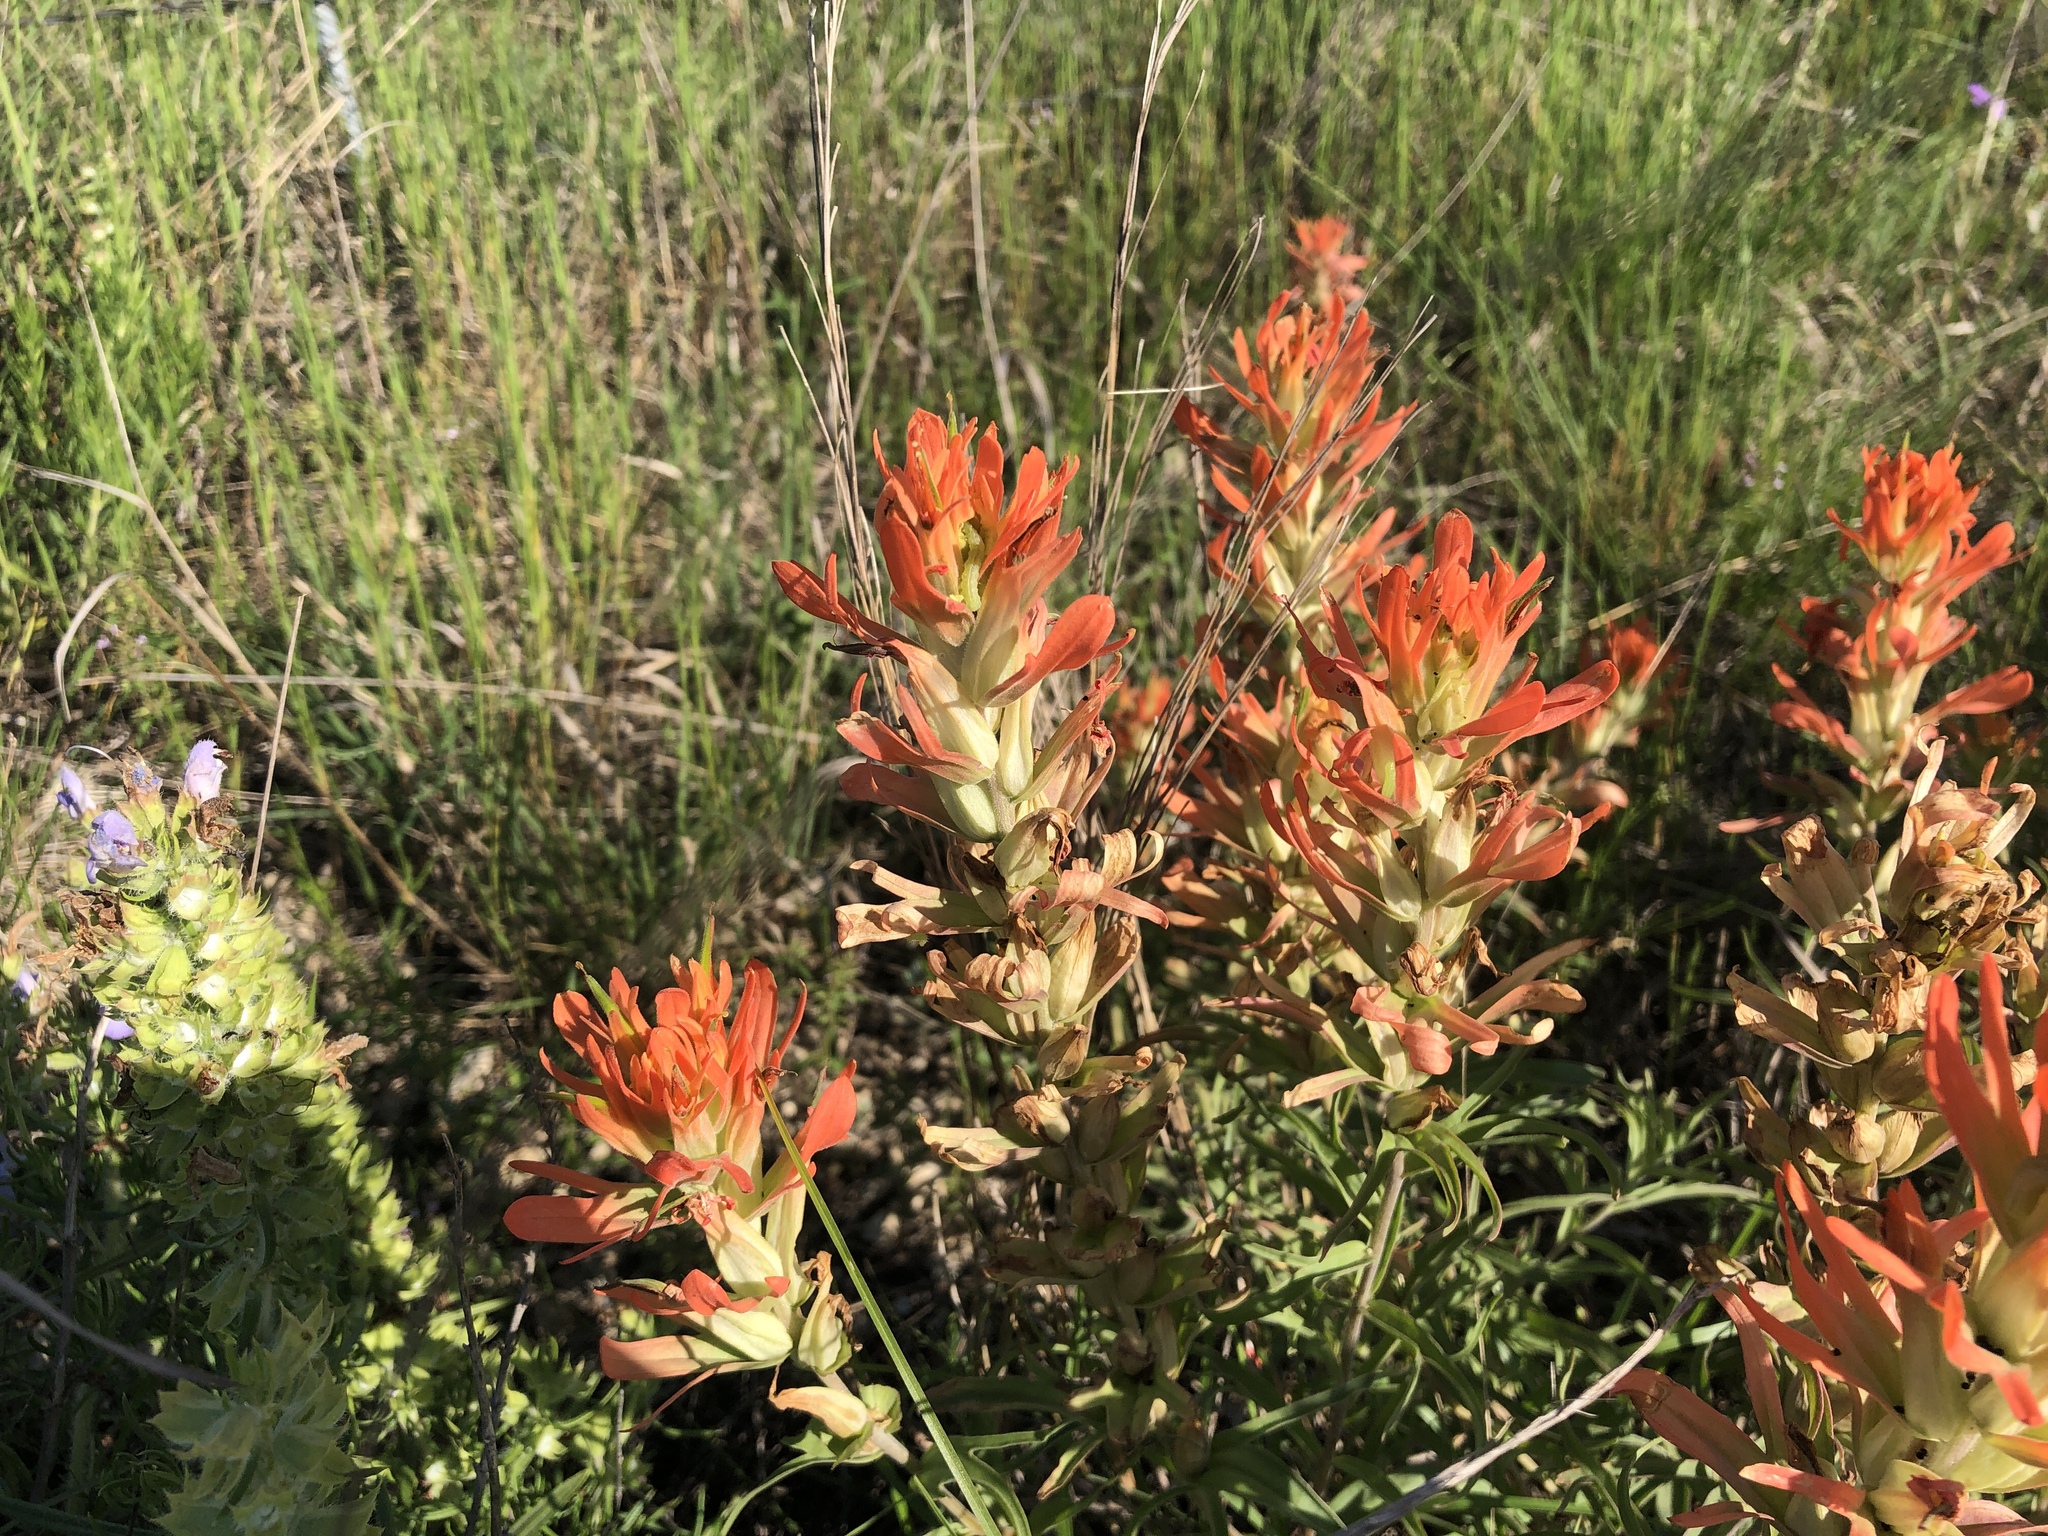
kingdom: Plantae
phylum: Tracheophyta
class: Magnoliopsida
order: Lamiales
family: Orobanchaceae
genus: Castilleja
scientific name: Castilleja lindheimeri
